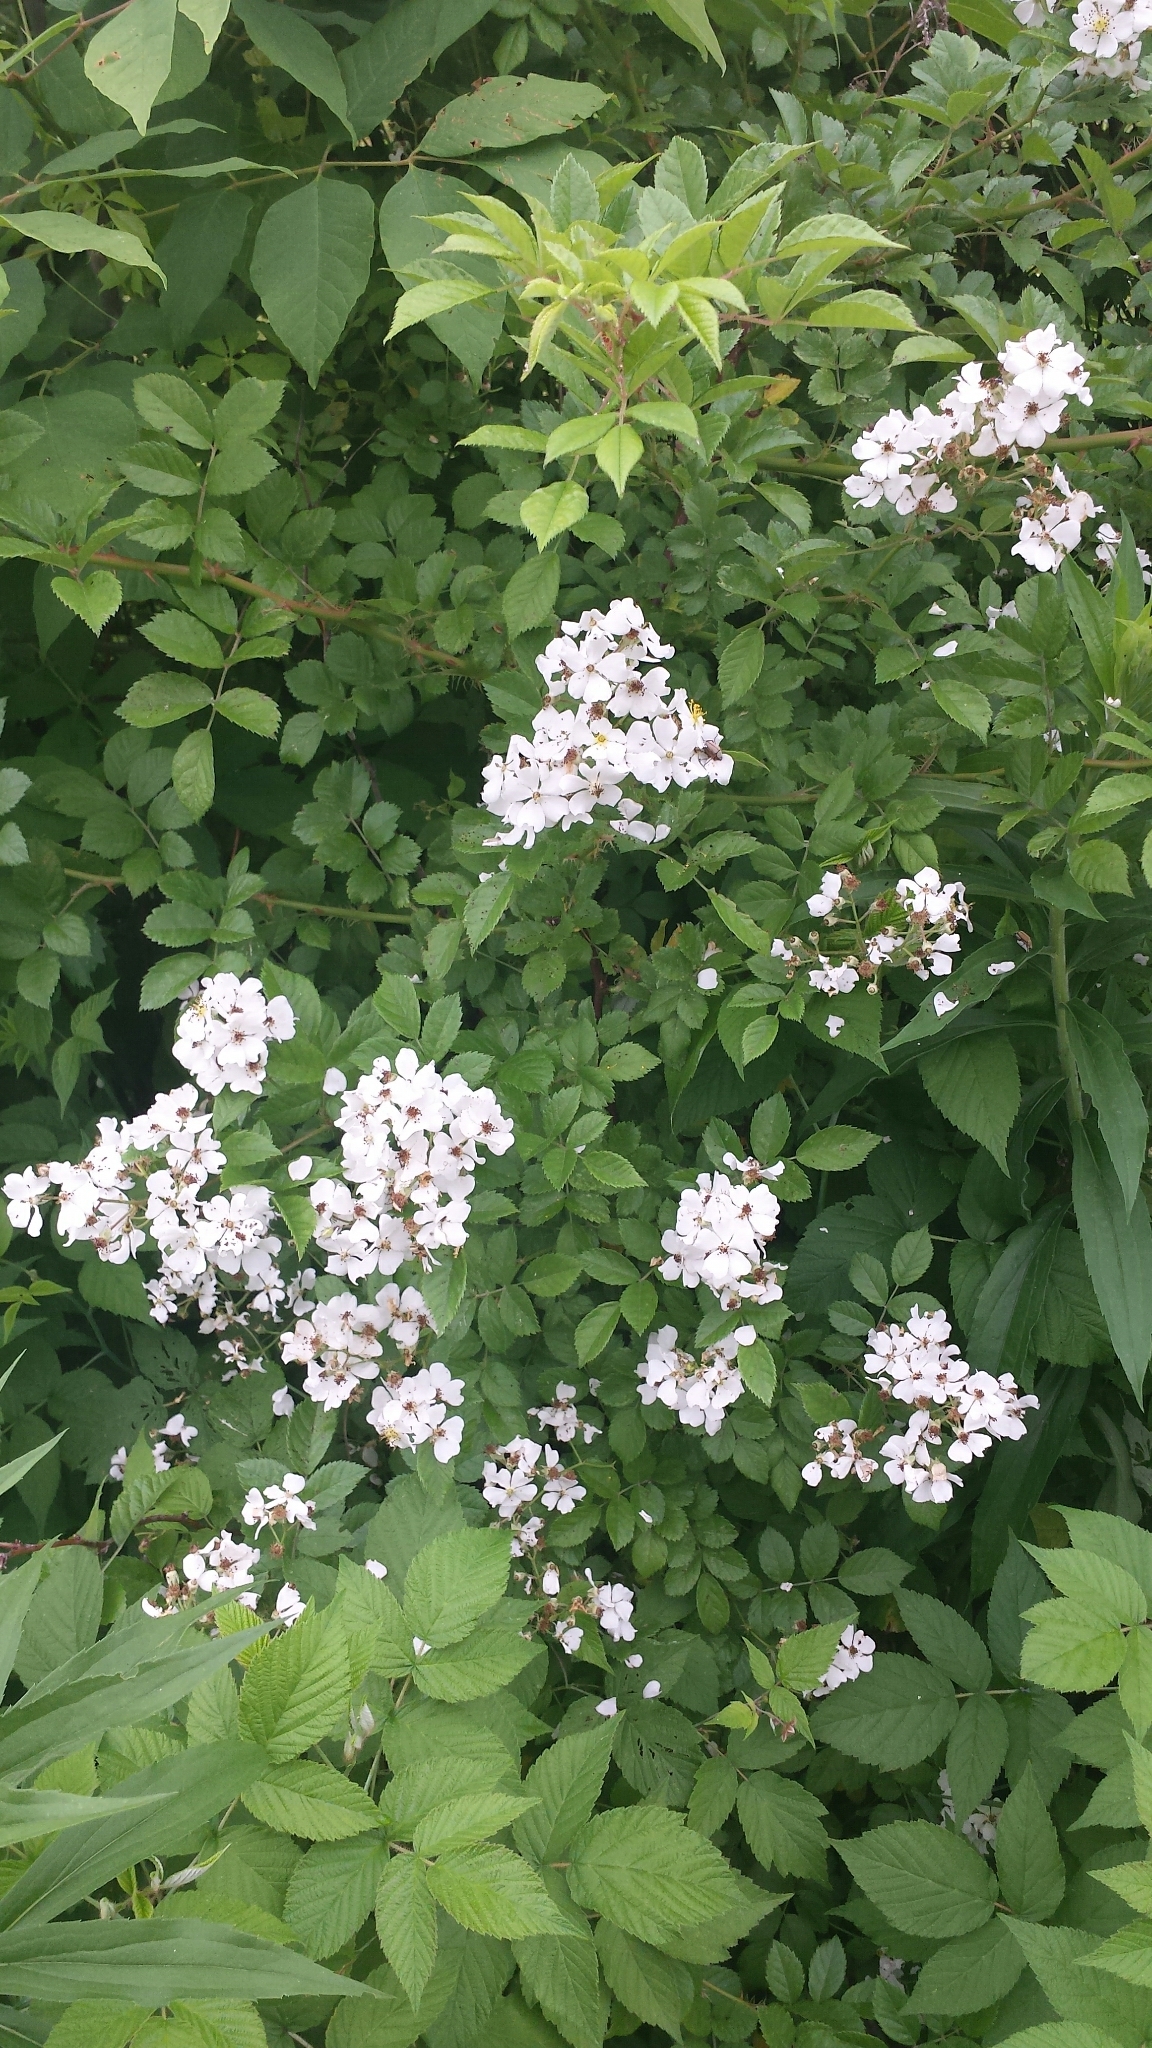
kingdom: Plantae
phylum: Tracheophyta
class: Magnoliopsida
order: Rosales
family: Rosaceae
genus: Rosa
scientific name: Rosa multiflora
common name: Multiflora rose
